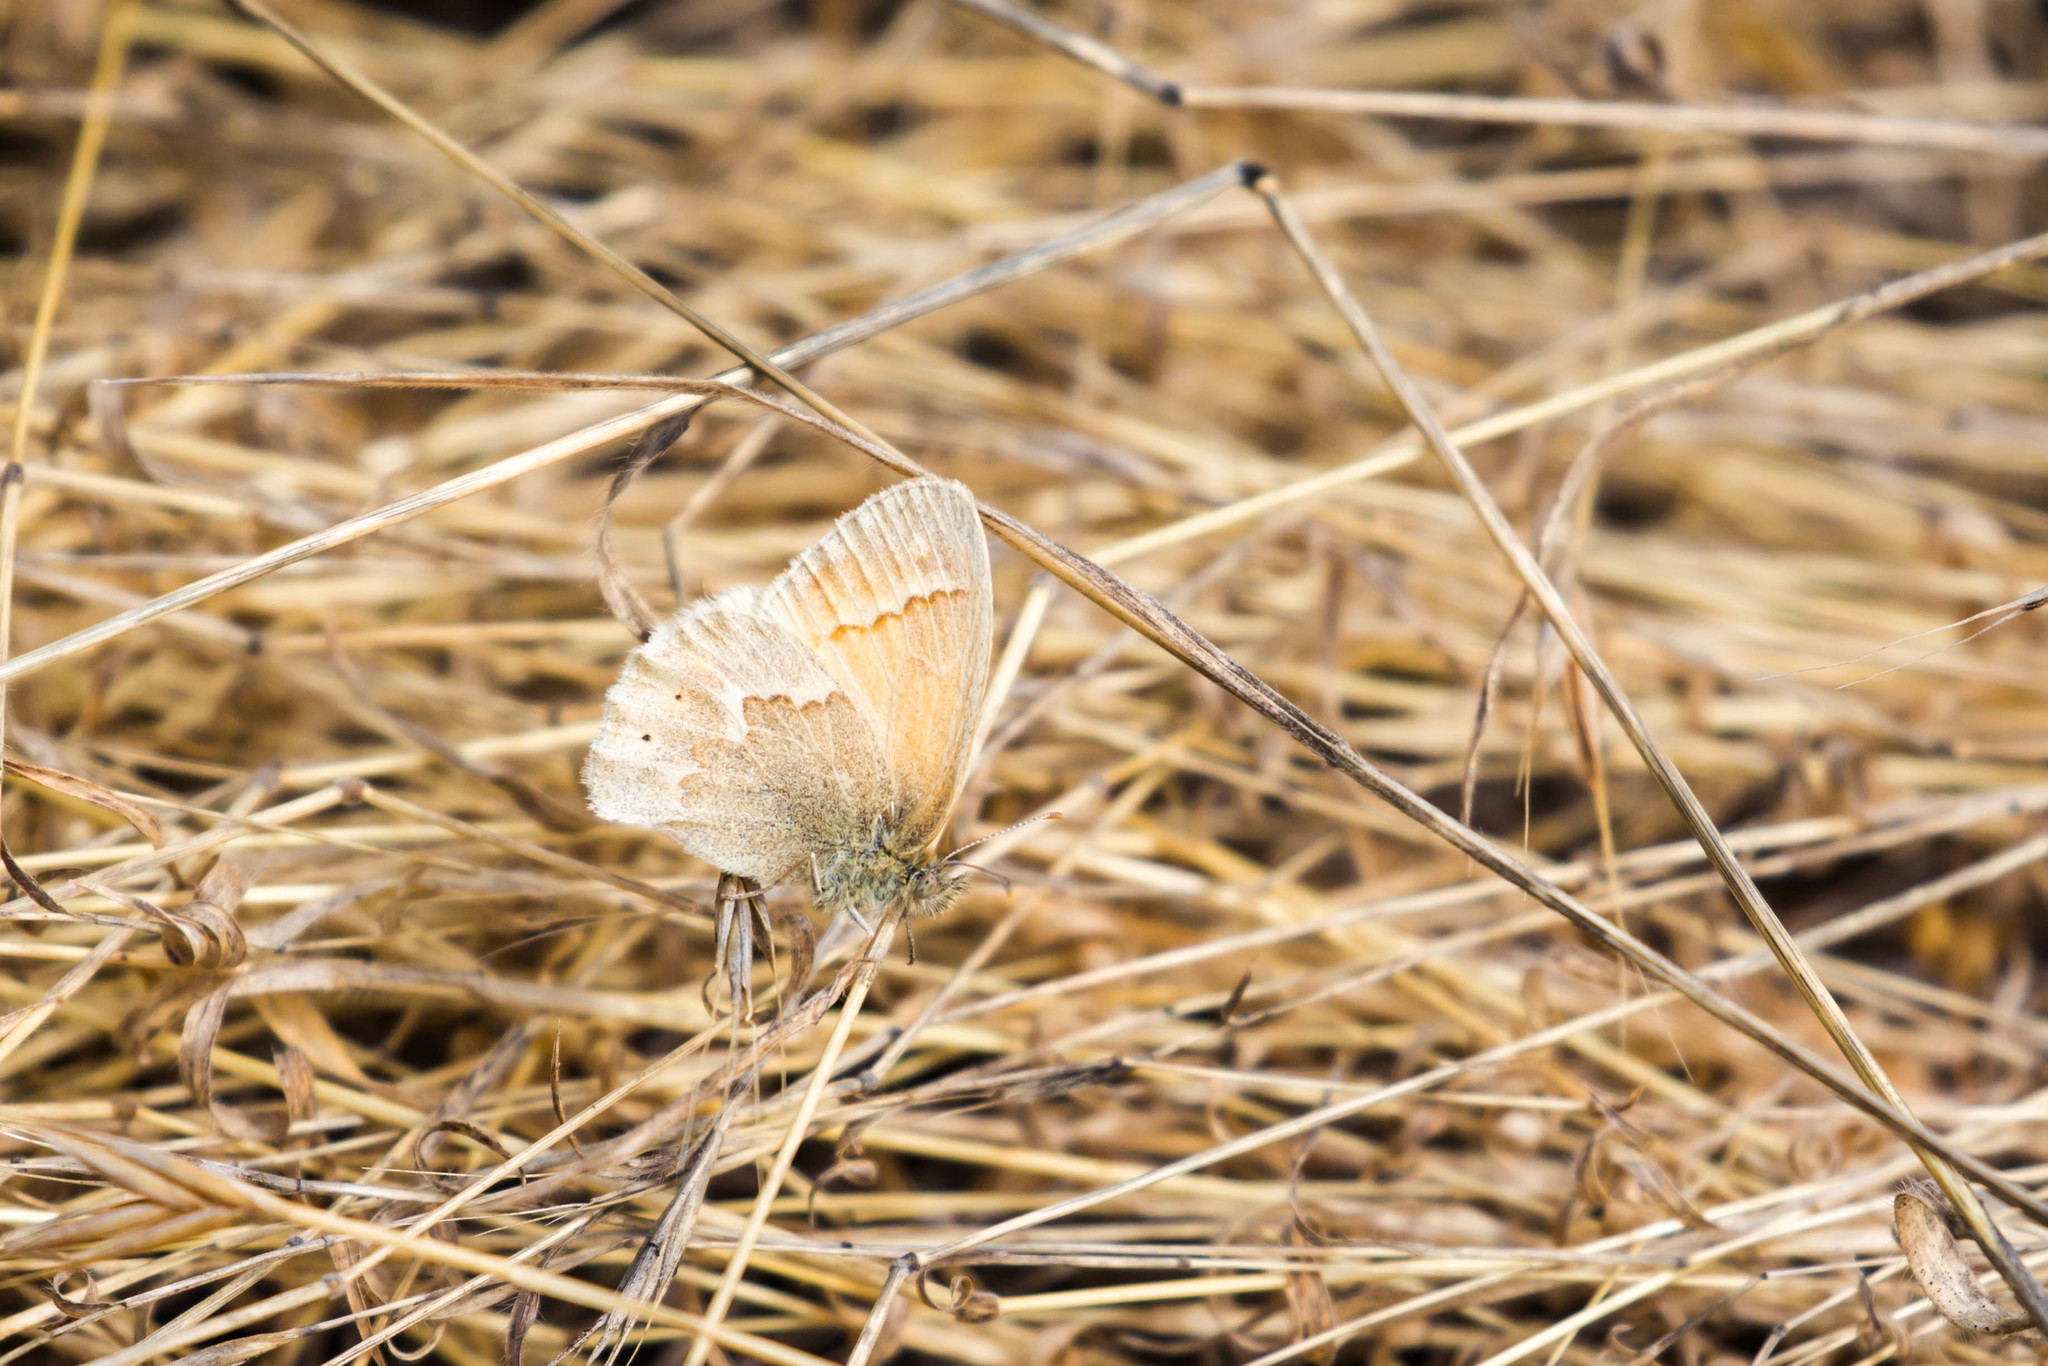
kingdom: Animalia
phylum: Arthropoda
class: Insecta
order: Lepidoptera
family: Nymphalidae
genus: Coenonympha
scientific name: Coenonympha california
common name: Common ringlet
